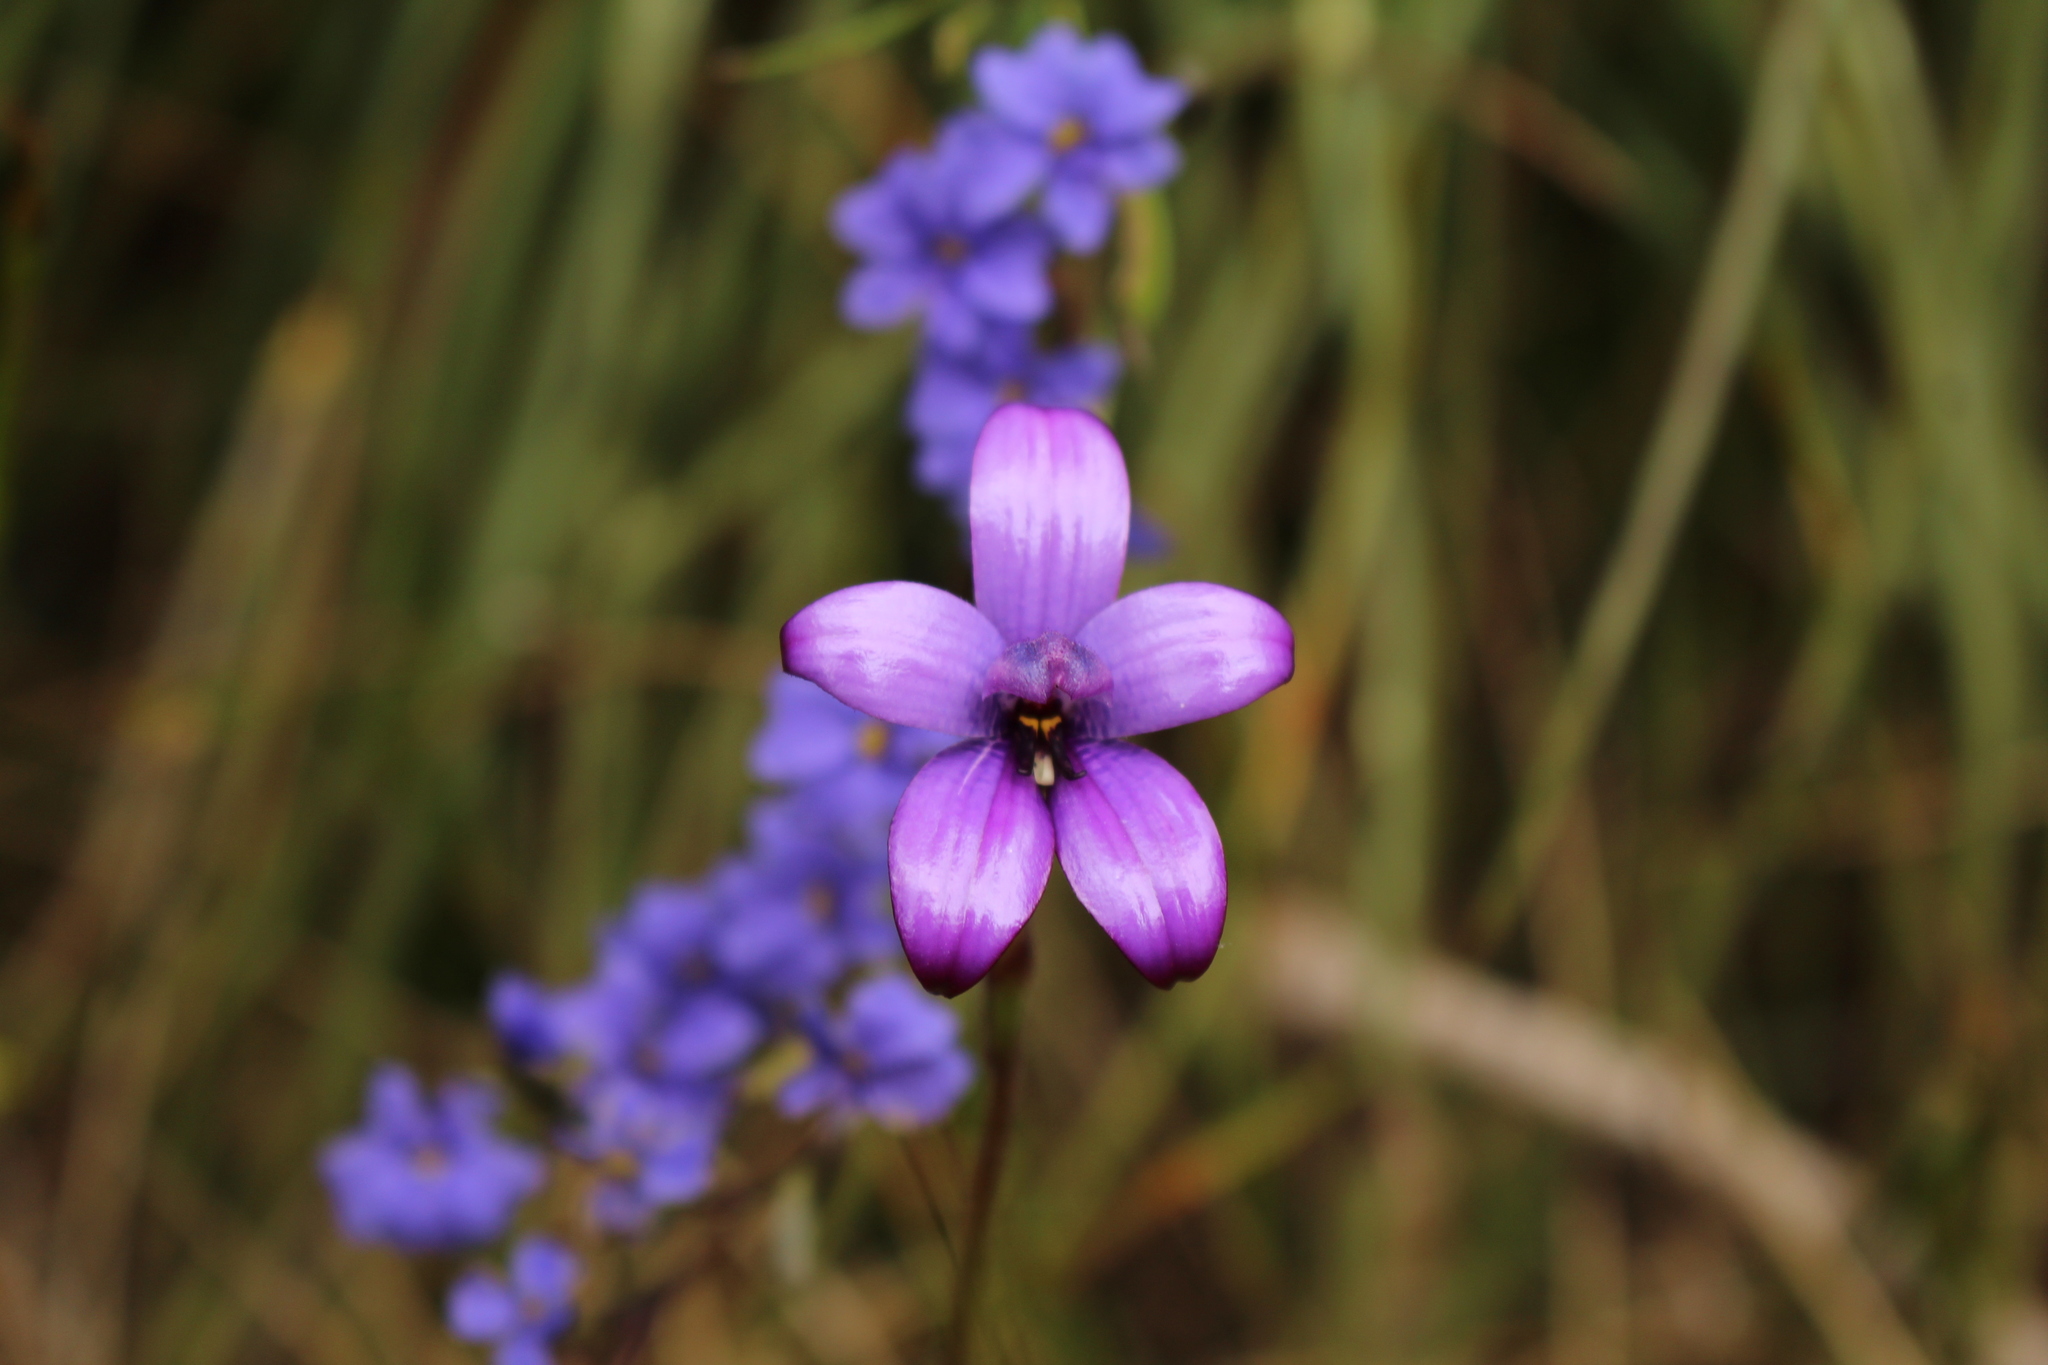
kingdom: Plantae
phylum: Tracheophyta
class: Liliopsida
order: Asparagales
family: Orchidaceae
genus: Caladenia
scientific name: Caladenia brunonis
